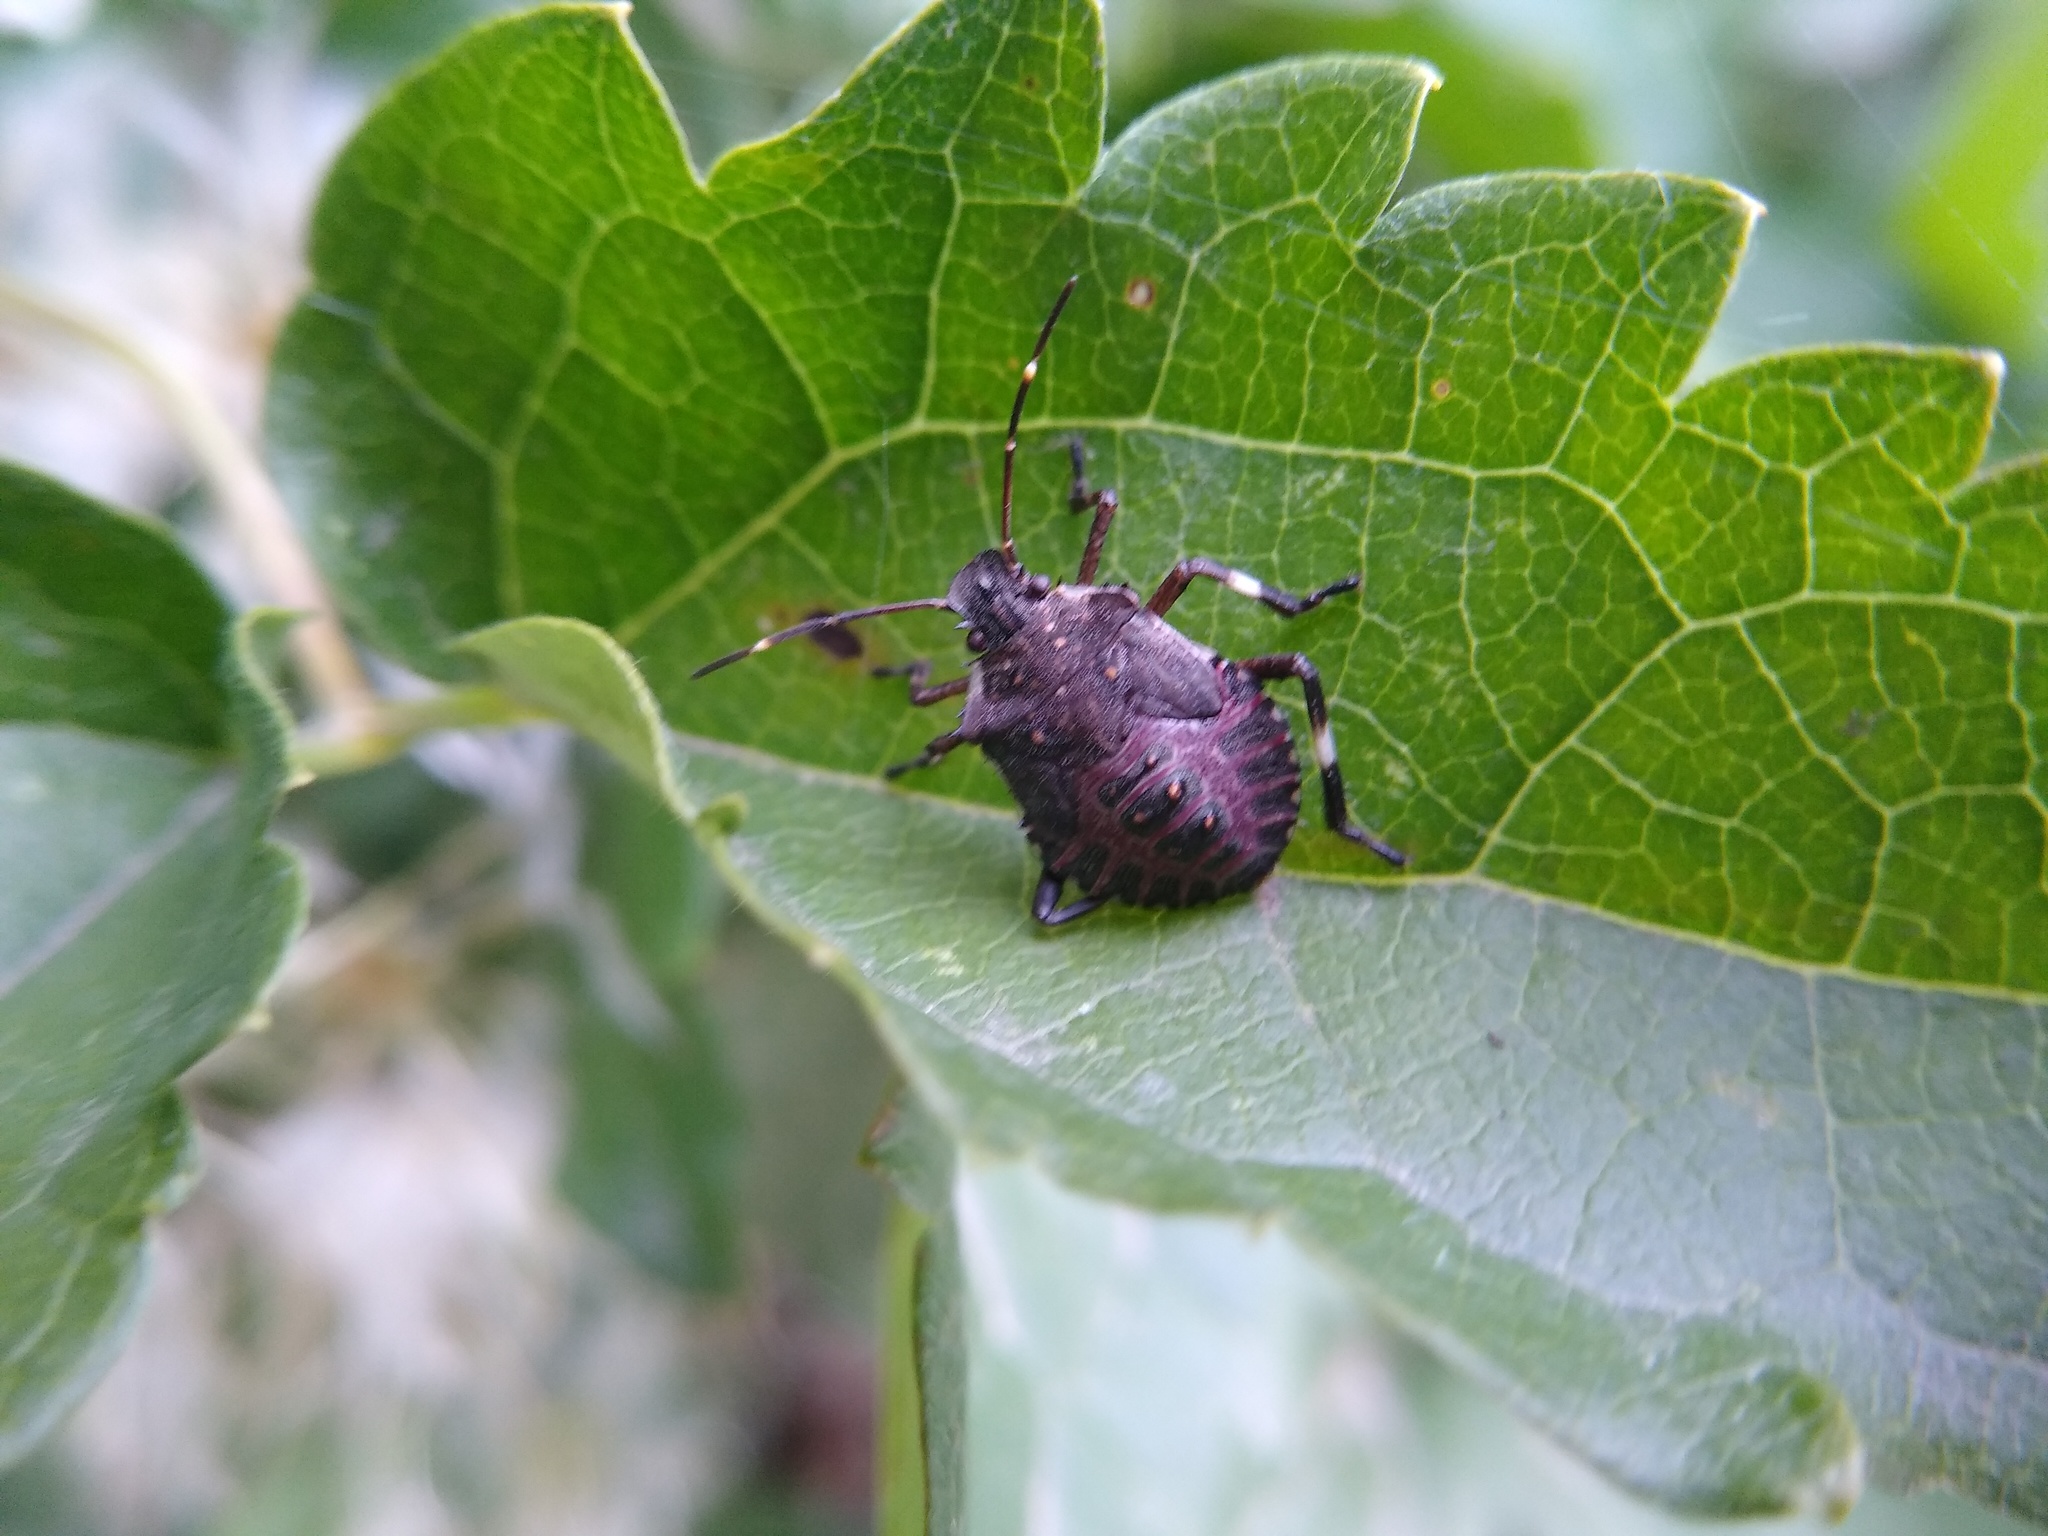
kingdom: Animalia
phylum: Arthropoda
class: Insecta
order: Hemiptera
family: Pentatomidae
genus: Halyomorpha
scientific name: Halyomorpha halys
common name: Brown marmorated stink bug
